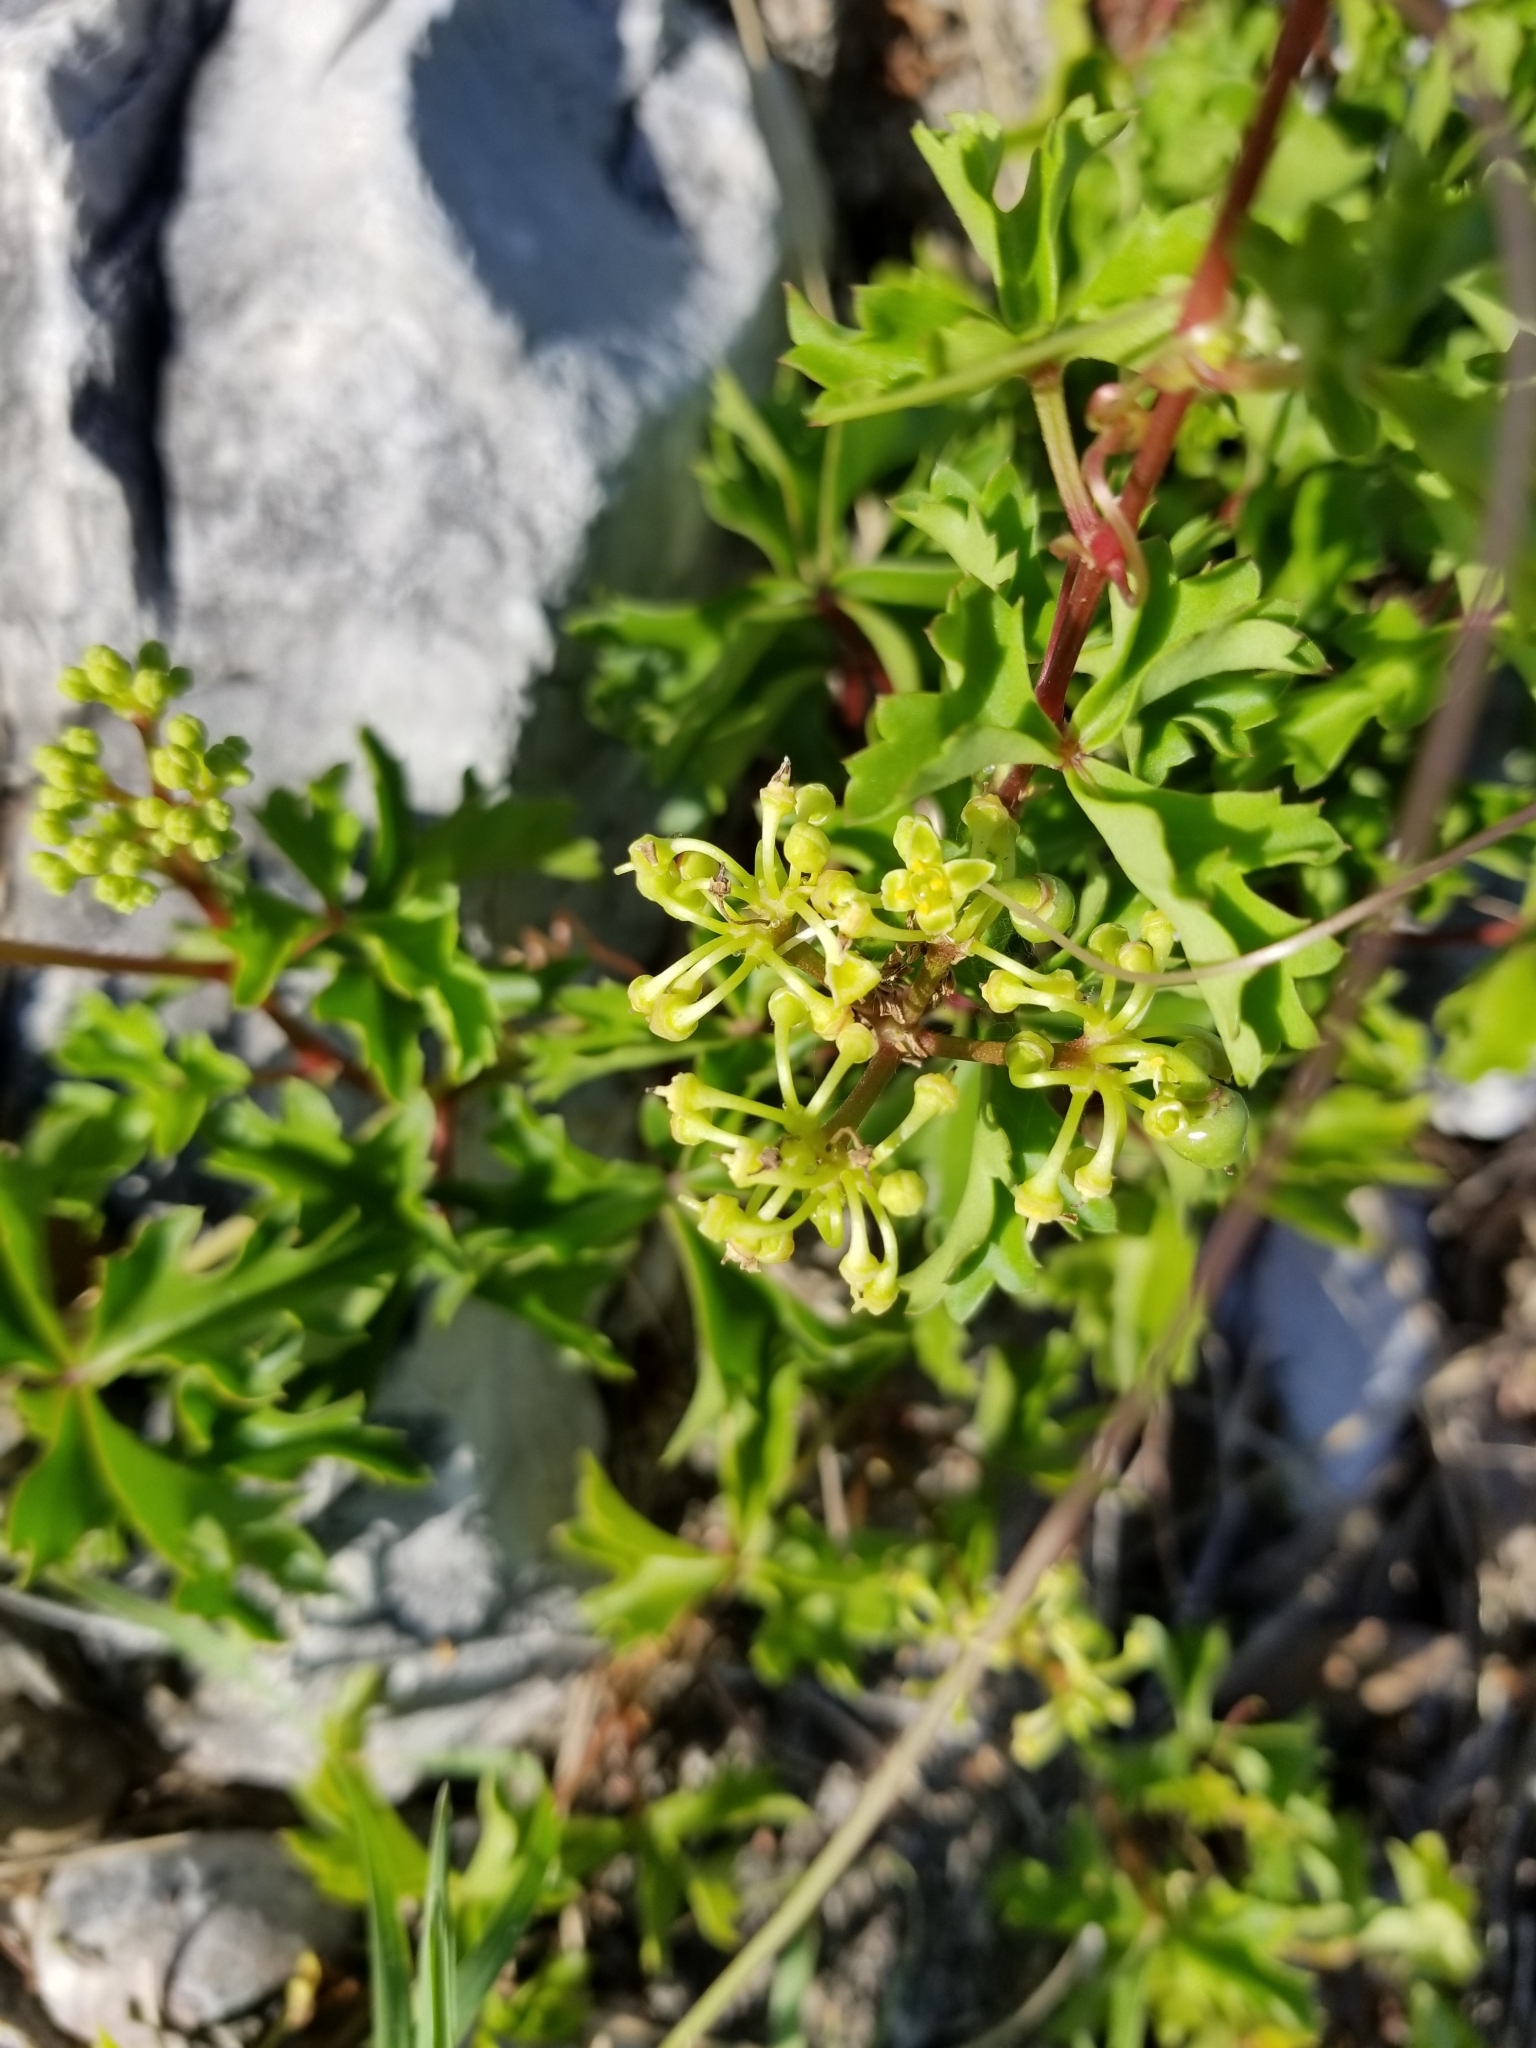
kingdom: Plantae
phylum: Tracheophyta
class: Magnoliopsida
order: Vitales
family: Vitaceae
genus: Cissus
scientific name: Cissus trifoliata
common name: Vine-sorrel
